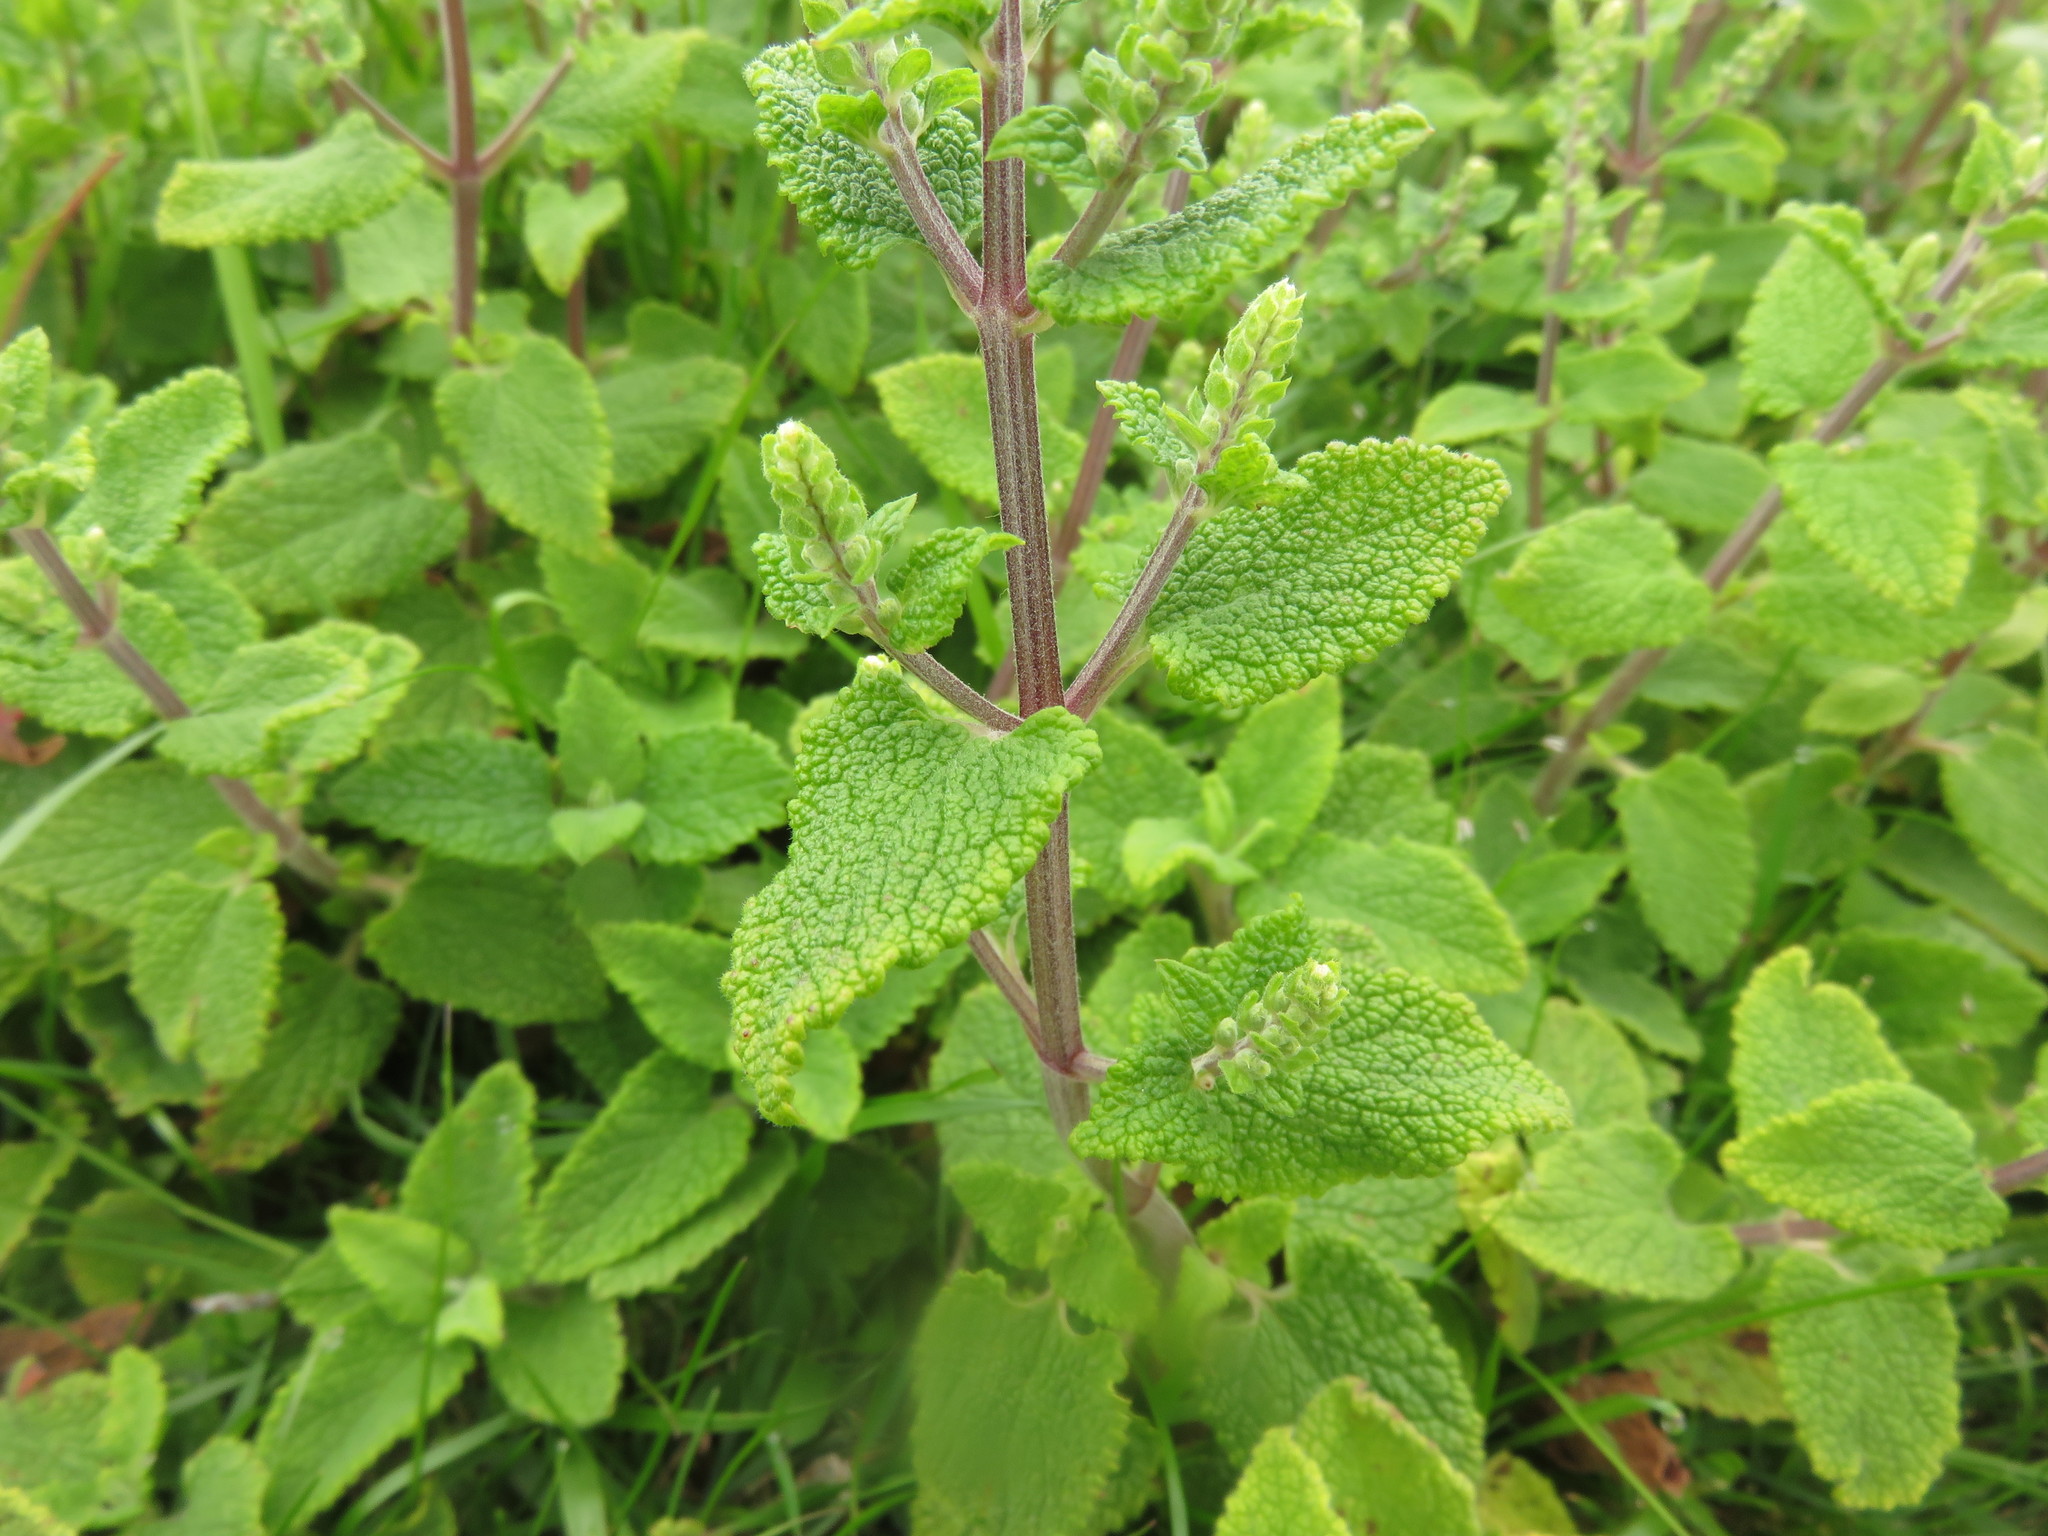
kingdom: Plantae
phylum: Tracheophyta
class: Magnoliopsida
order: Lamiales
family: Lamiaceae
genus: Teucrium
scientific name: Teucrium scorodonia
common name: Woodland germander
